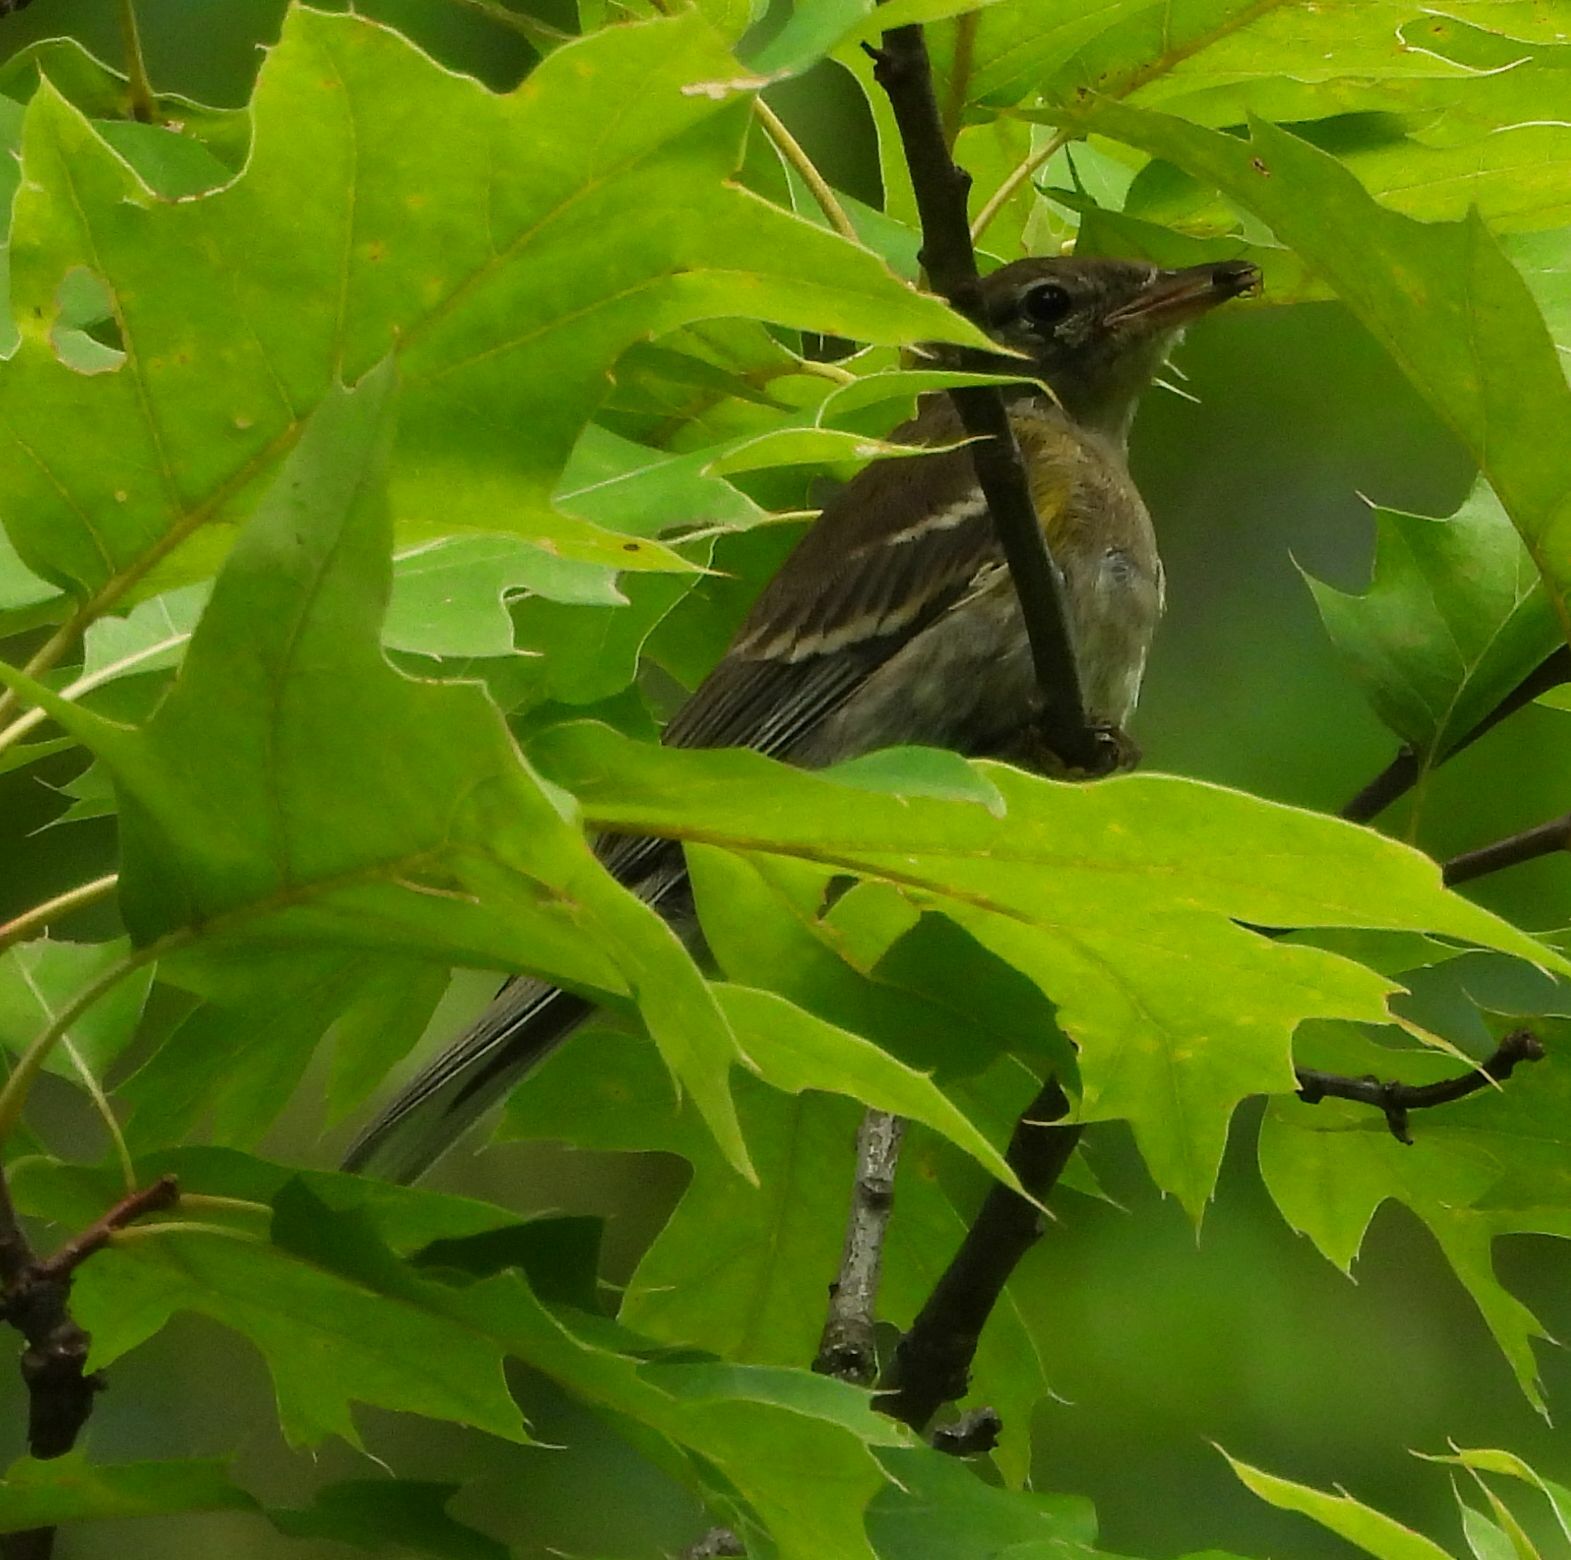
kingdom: Animalia
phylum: Chordata
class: Aves
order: Passeriformes
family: Parulidae
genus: Setophaga
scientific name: Setophaga coronata
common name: Myrtle warbler
